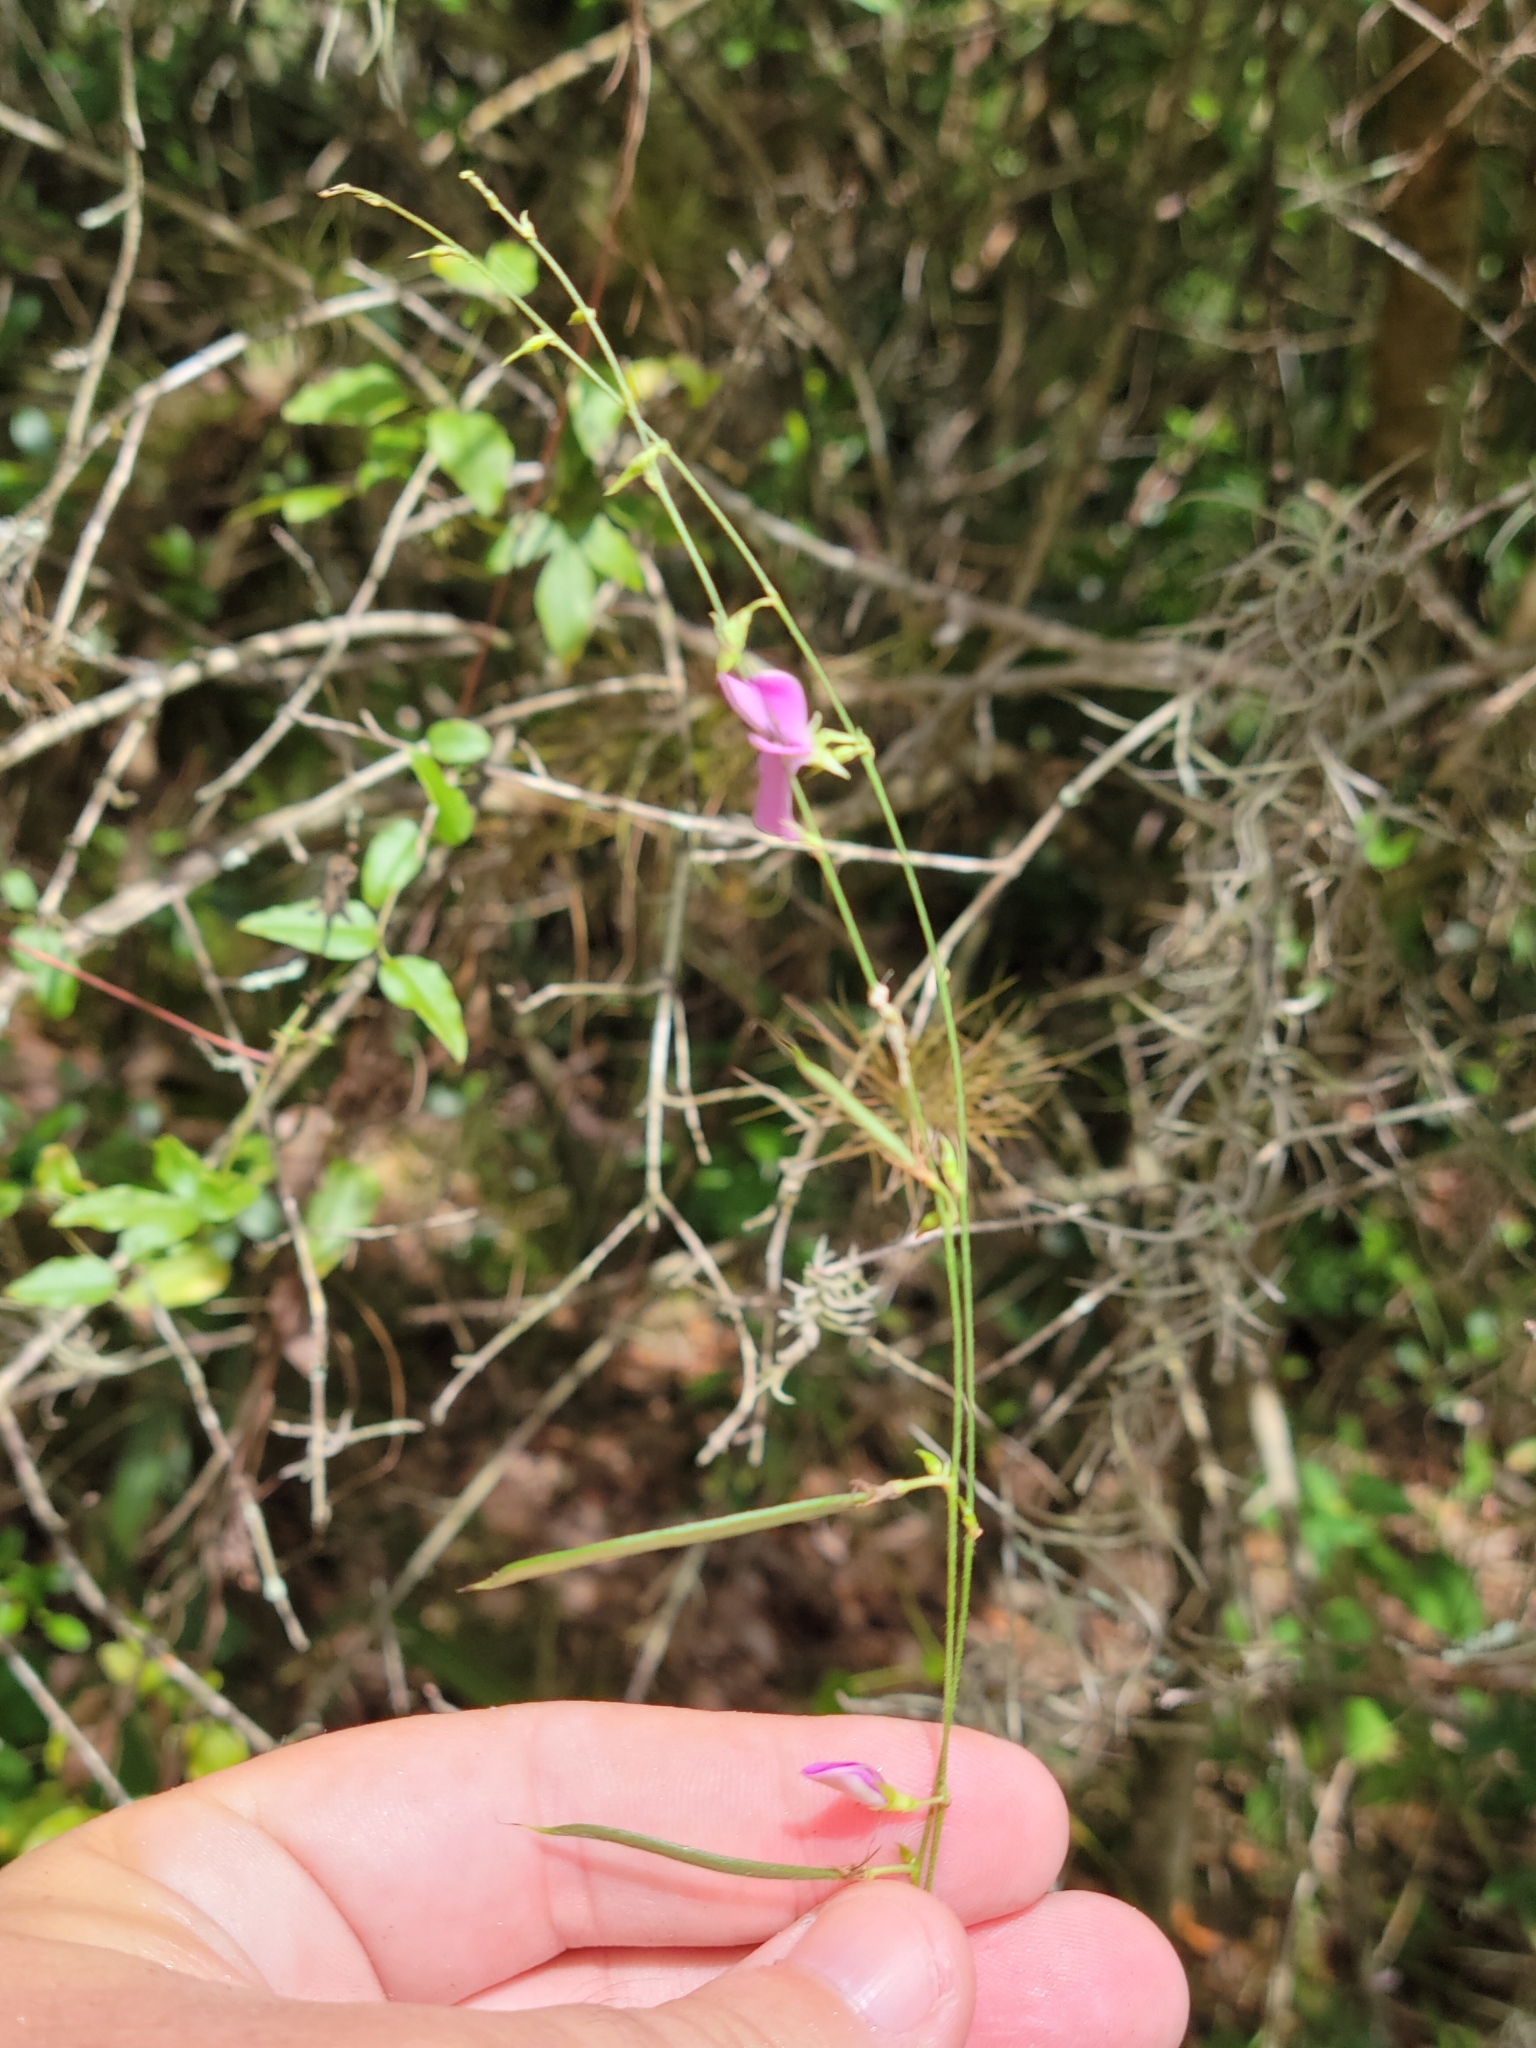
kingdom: Plantae
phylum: Tracheophyta
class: Magnoliopsida
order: Fabales
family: Fabaceae
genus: Galactia
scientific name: Galactia volubilis
